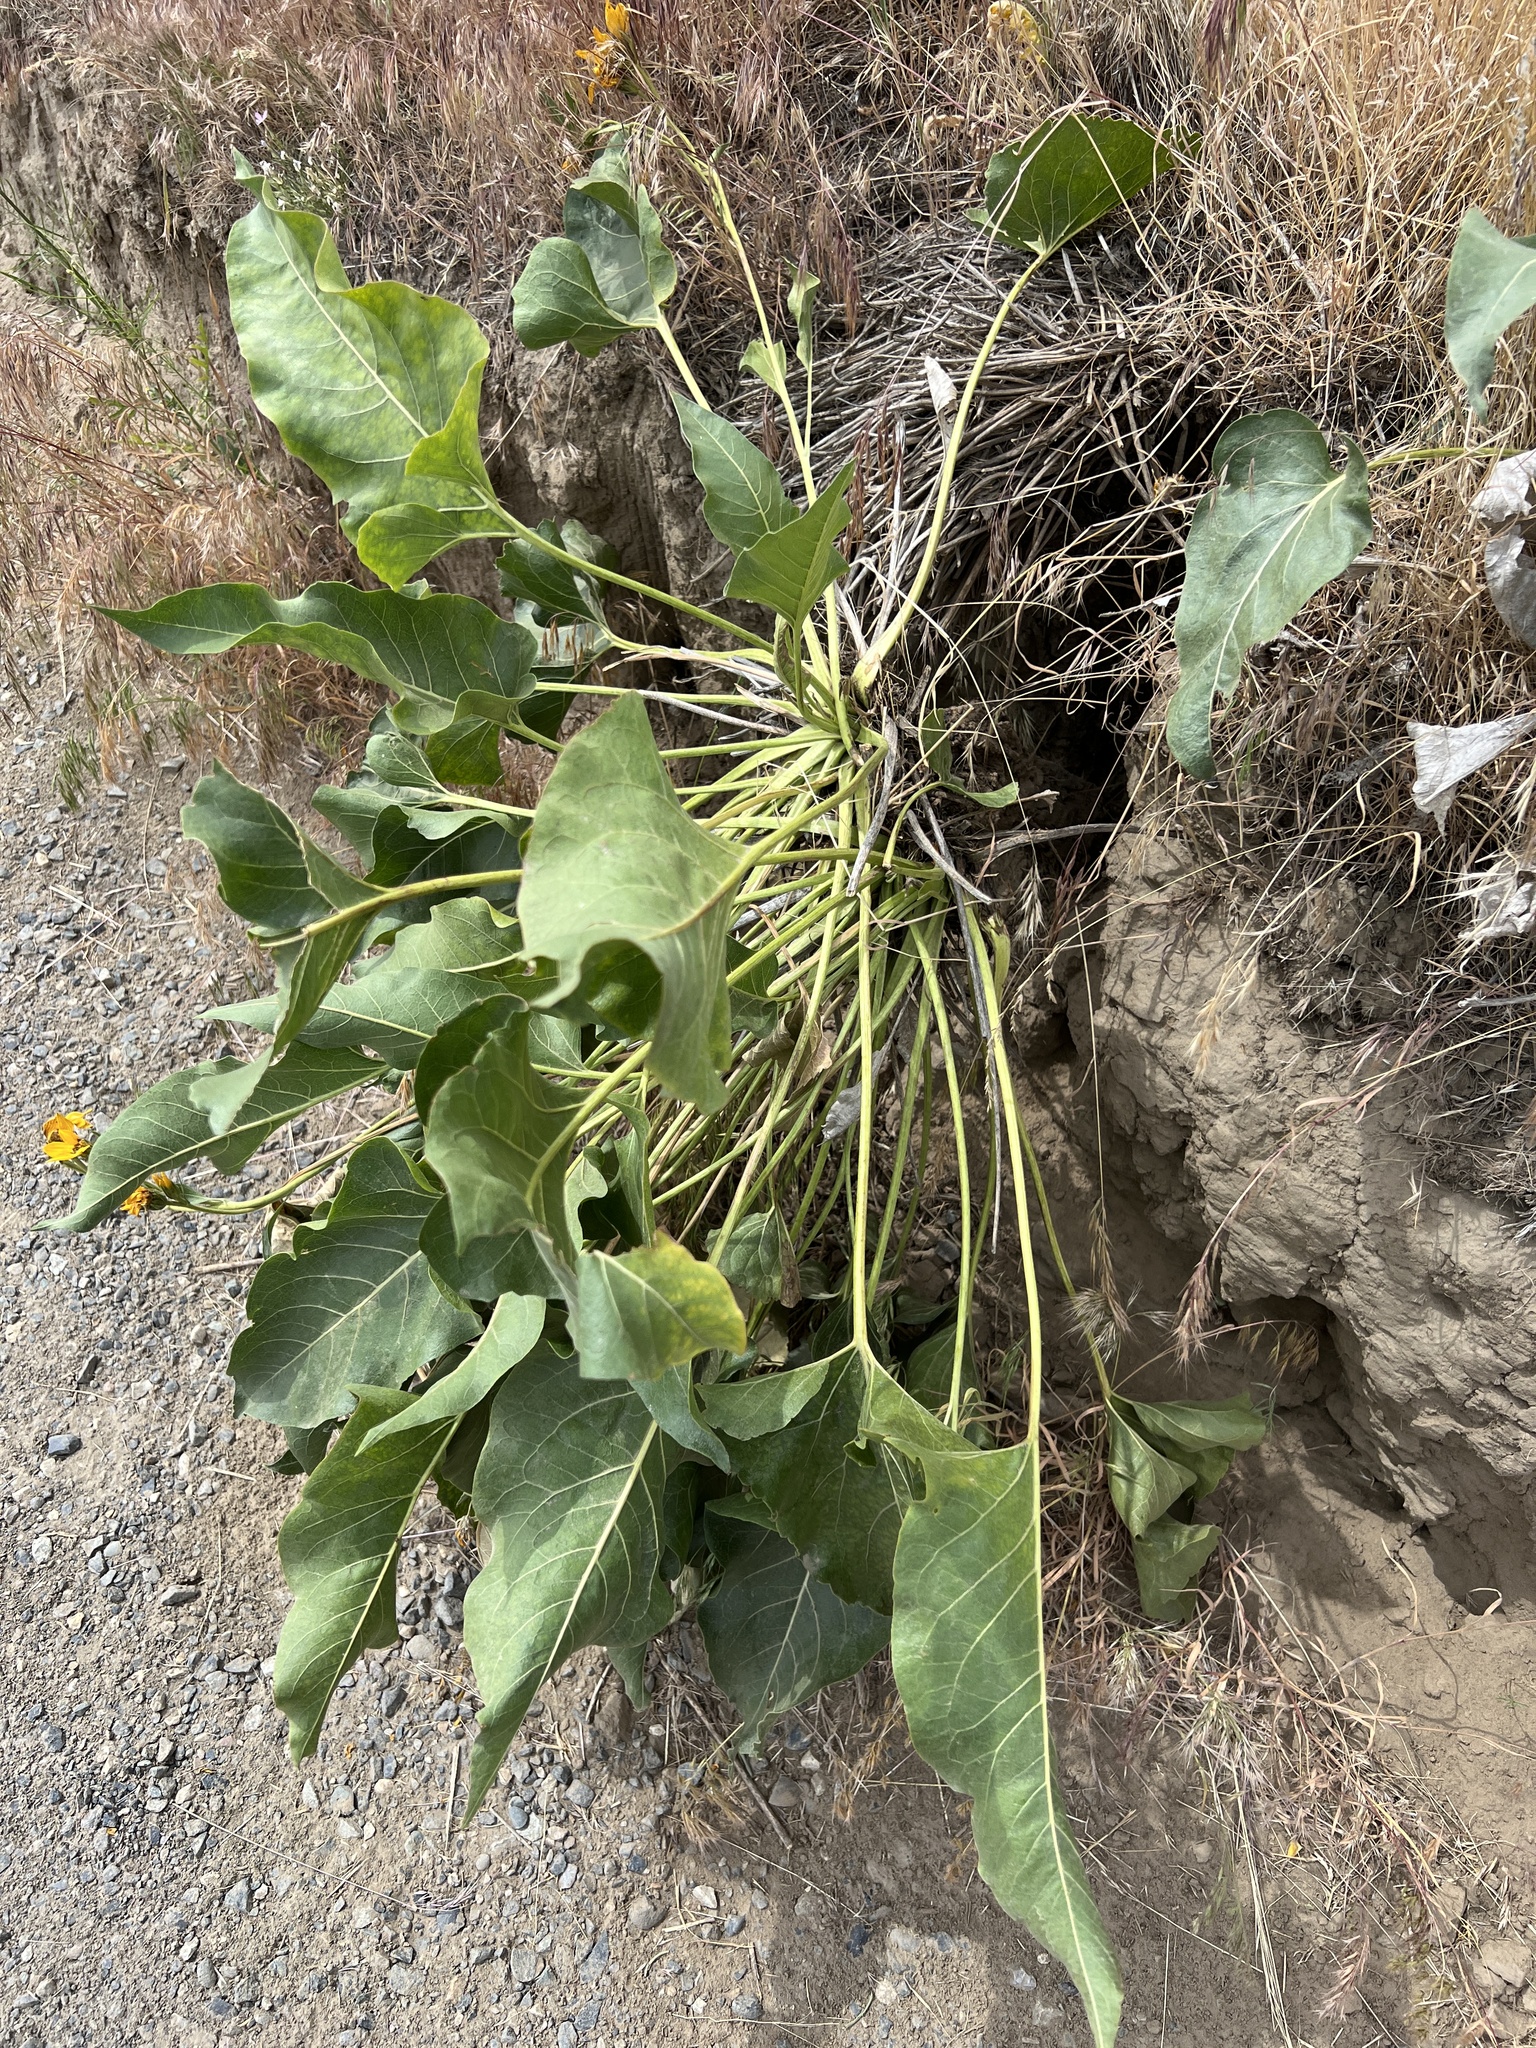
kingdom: Plantae
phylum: Tracheophyta
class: Magnoliopsida
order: Asterales
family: Asteraceae
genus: Balsamorhiza
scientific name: Balsamorhiza careyana
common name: Carey's balsamroot
